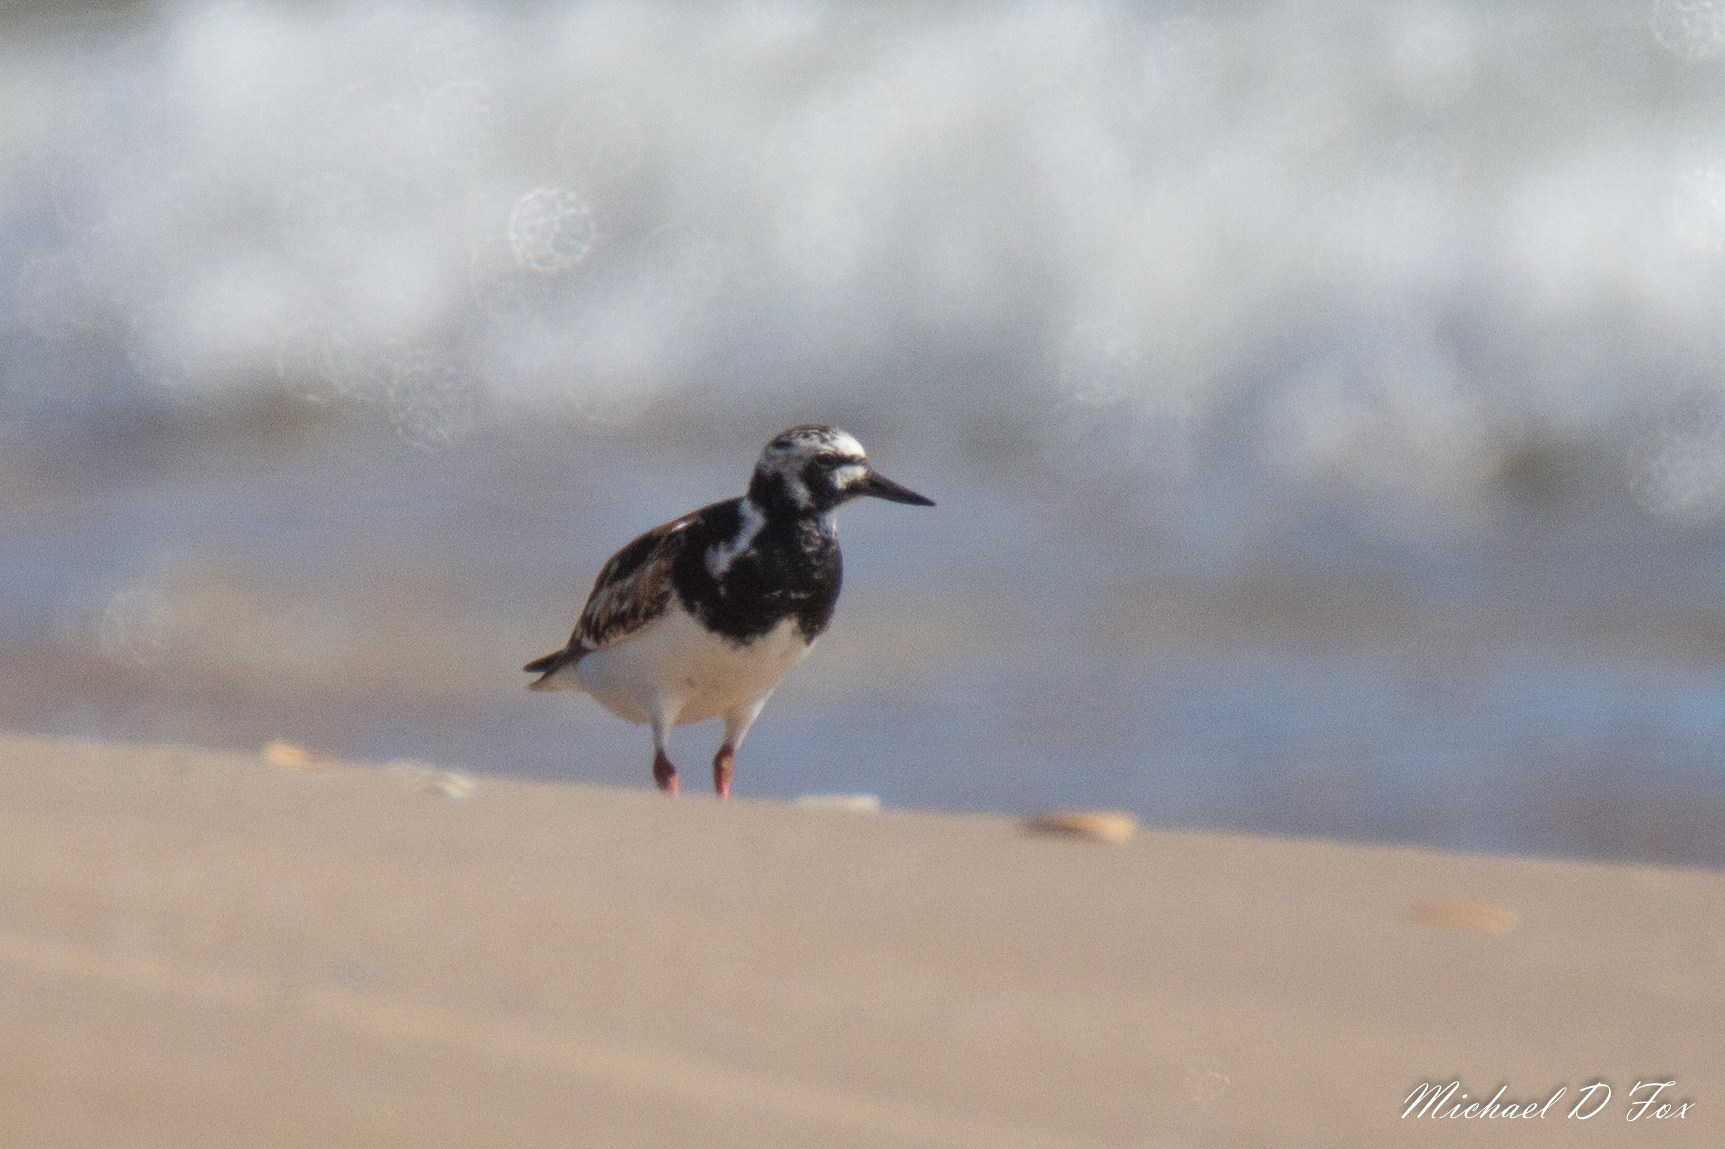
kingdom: Animalia
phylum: Chordata
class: Aves
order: Charadriiformes
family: Scolopacidae
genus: Arenaria
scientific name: Arenaria interpres
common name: Ruddy turnstone
